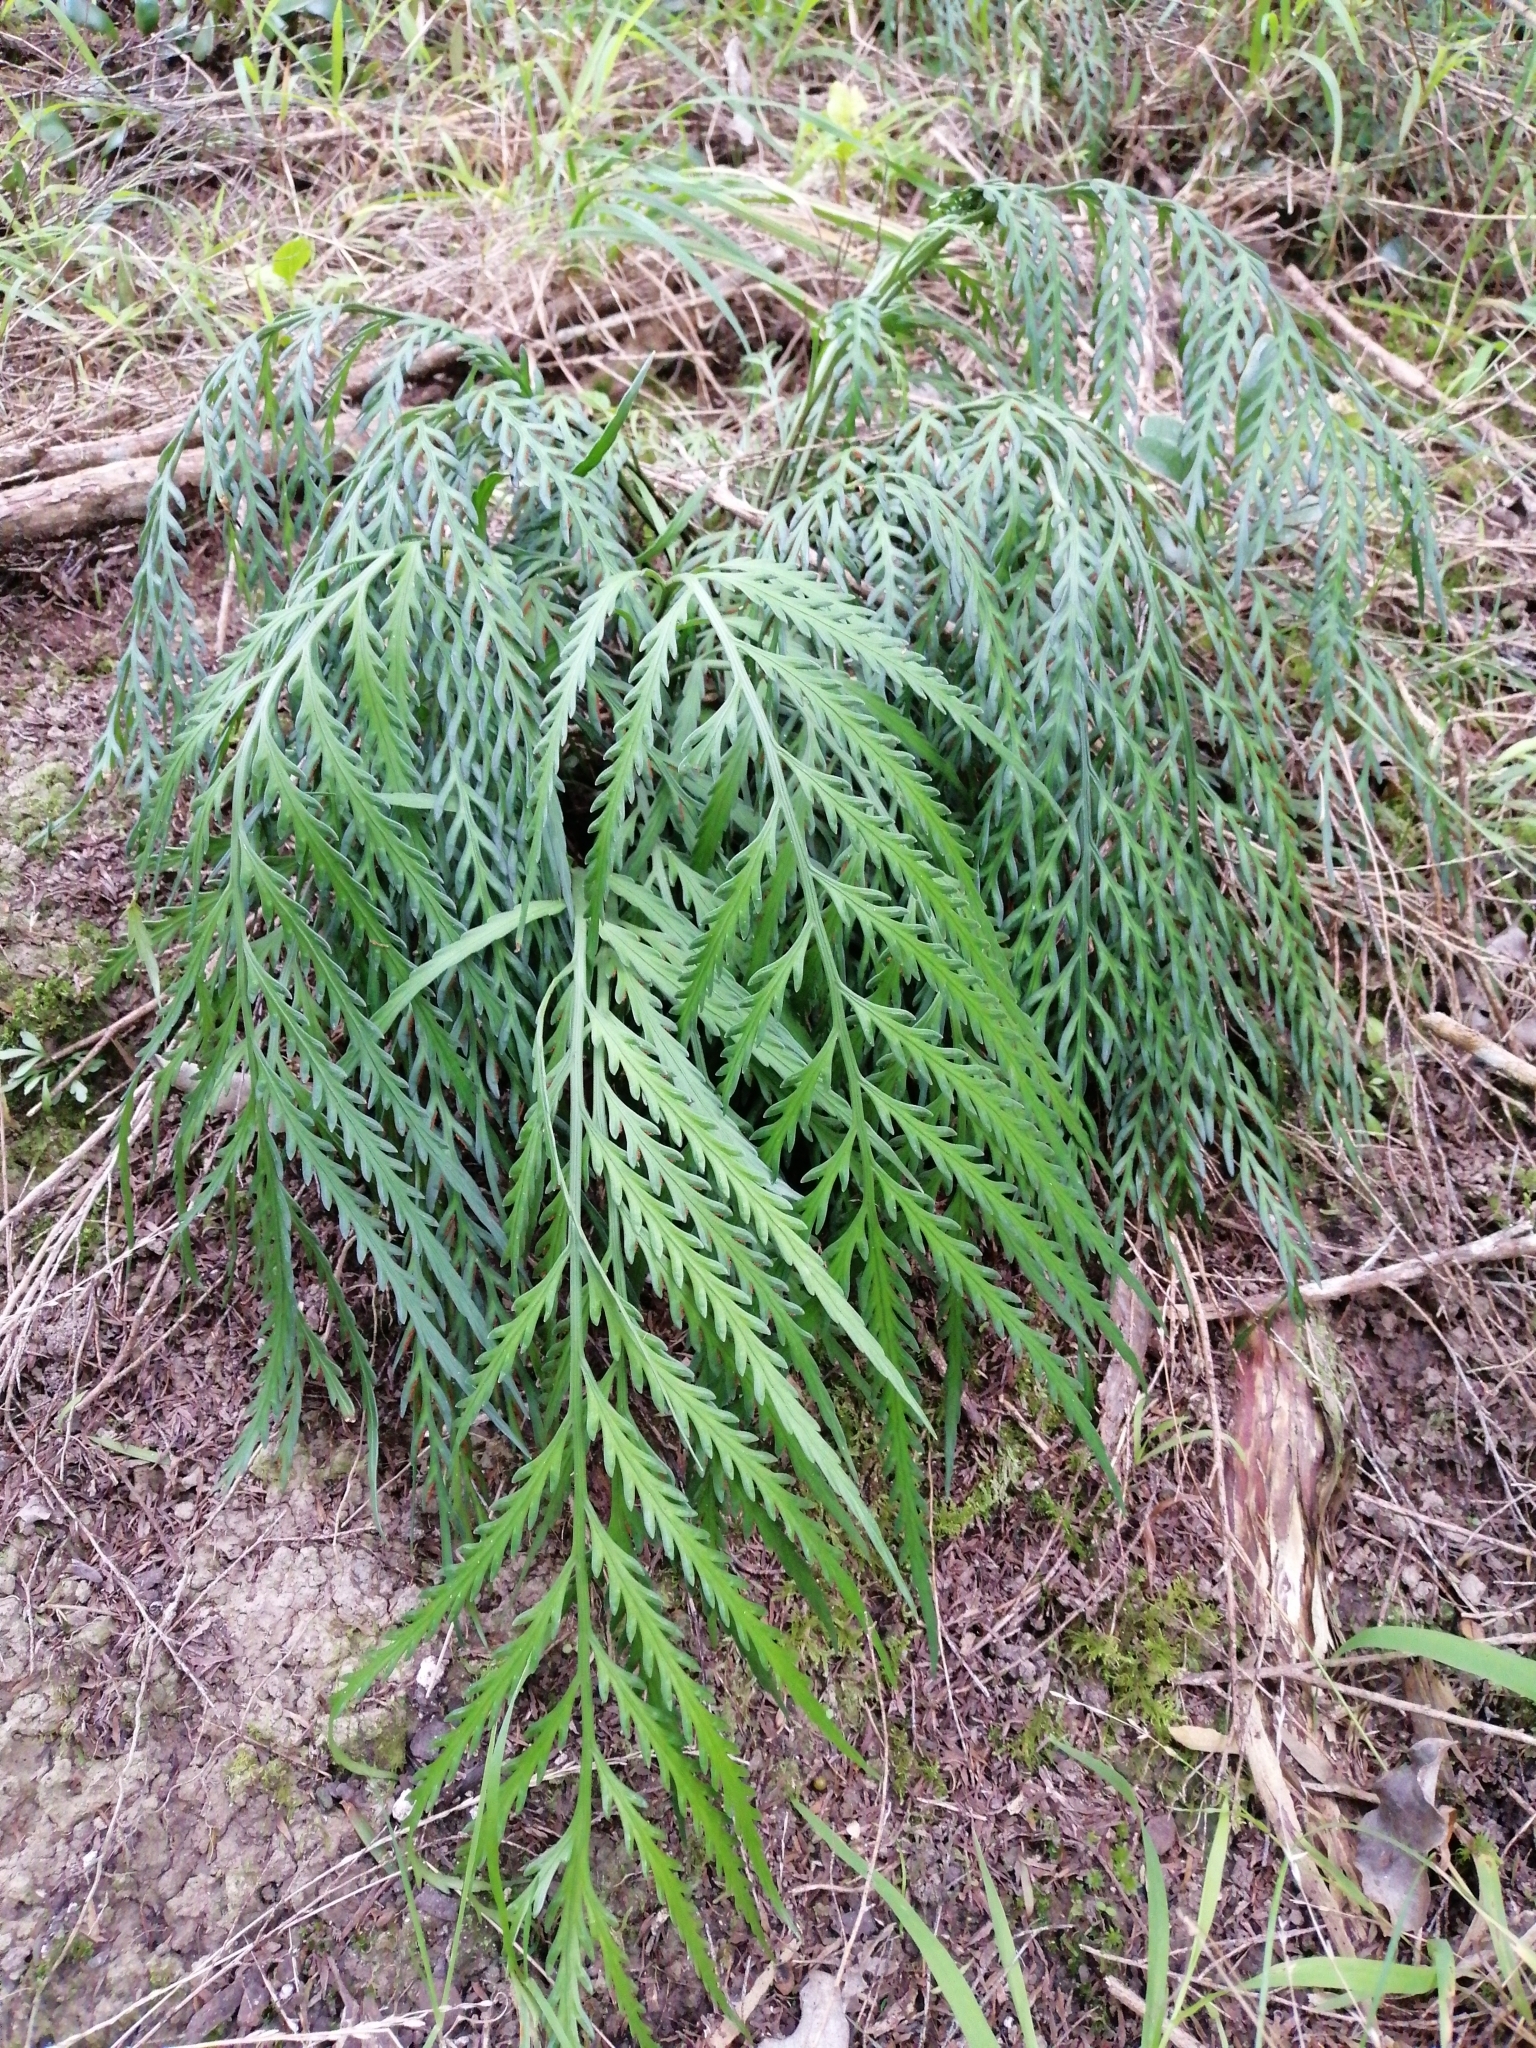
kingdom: Plantae
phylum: Tracheophyta
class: Polypodiopsida
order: Polypodiales
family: Aspleniaceae
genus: Asplenium
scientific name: Asplenium flaccidum
